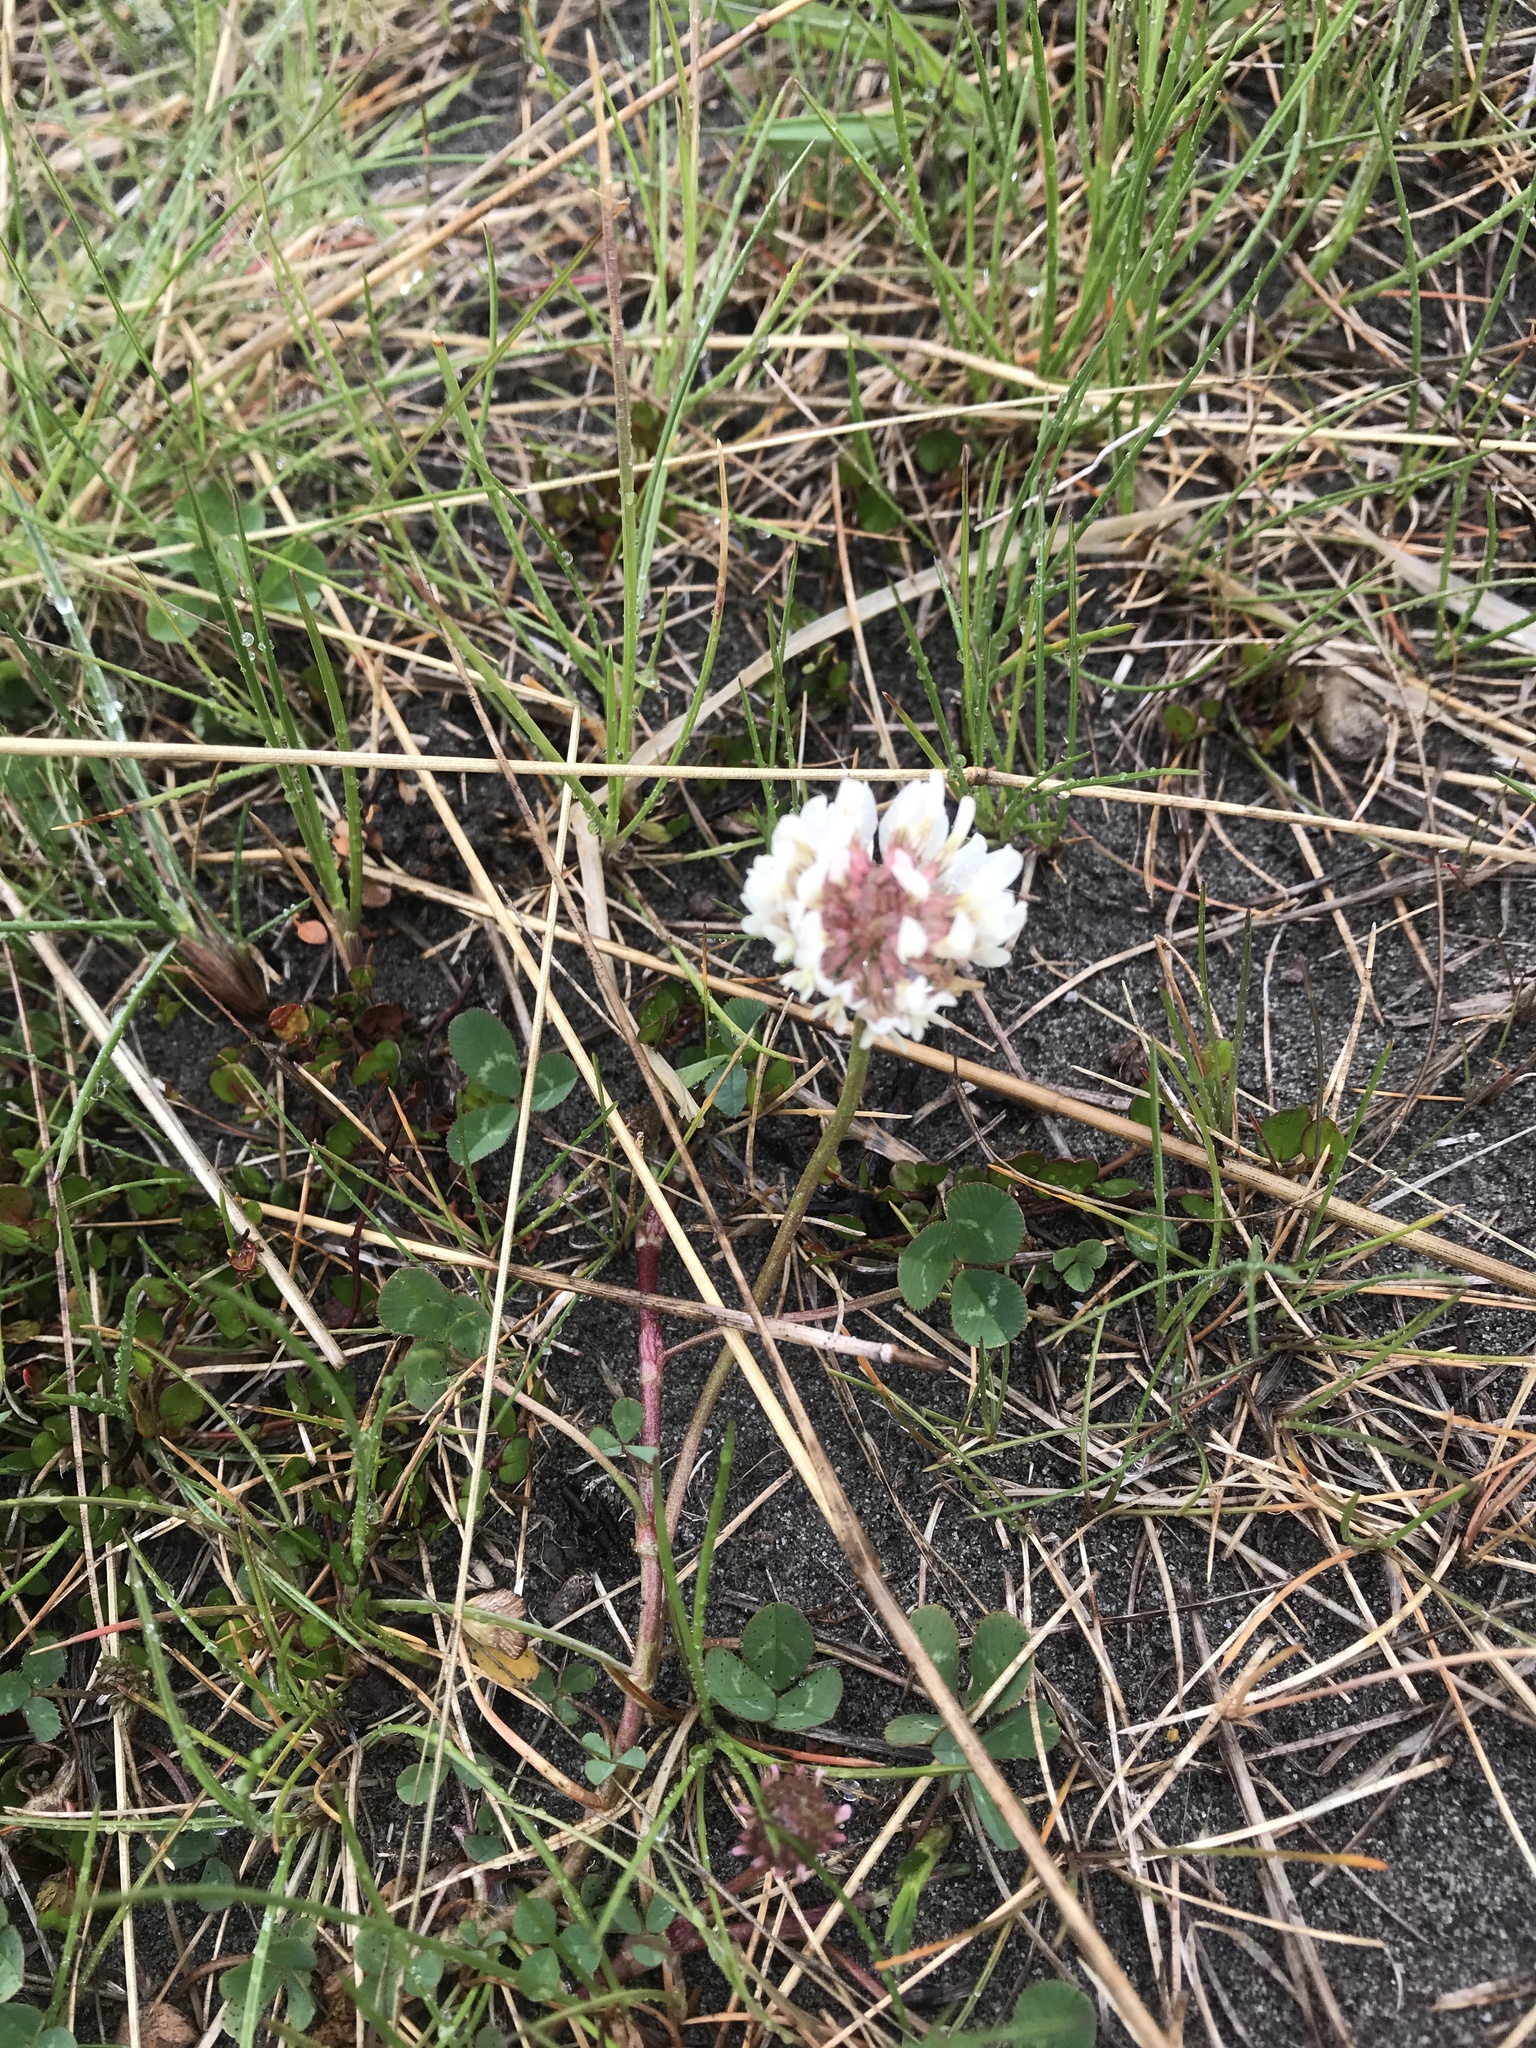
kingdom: Plantae
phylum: Tracheophyta
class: Magnoliopsida
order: Fabales
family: Fabaceae
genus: Trifolium
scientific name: Trifolium repens
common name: White clover
